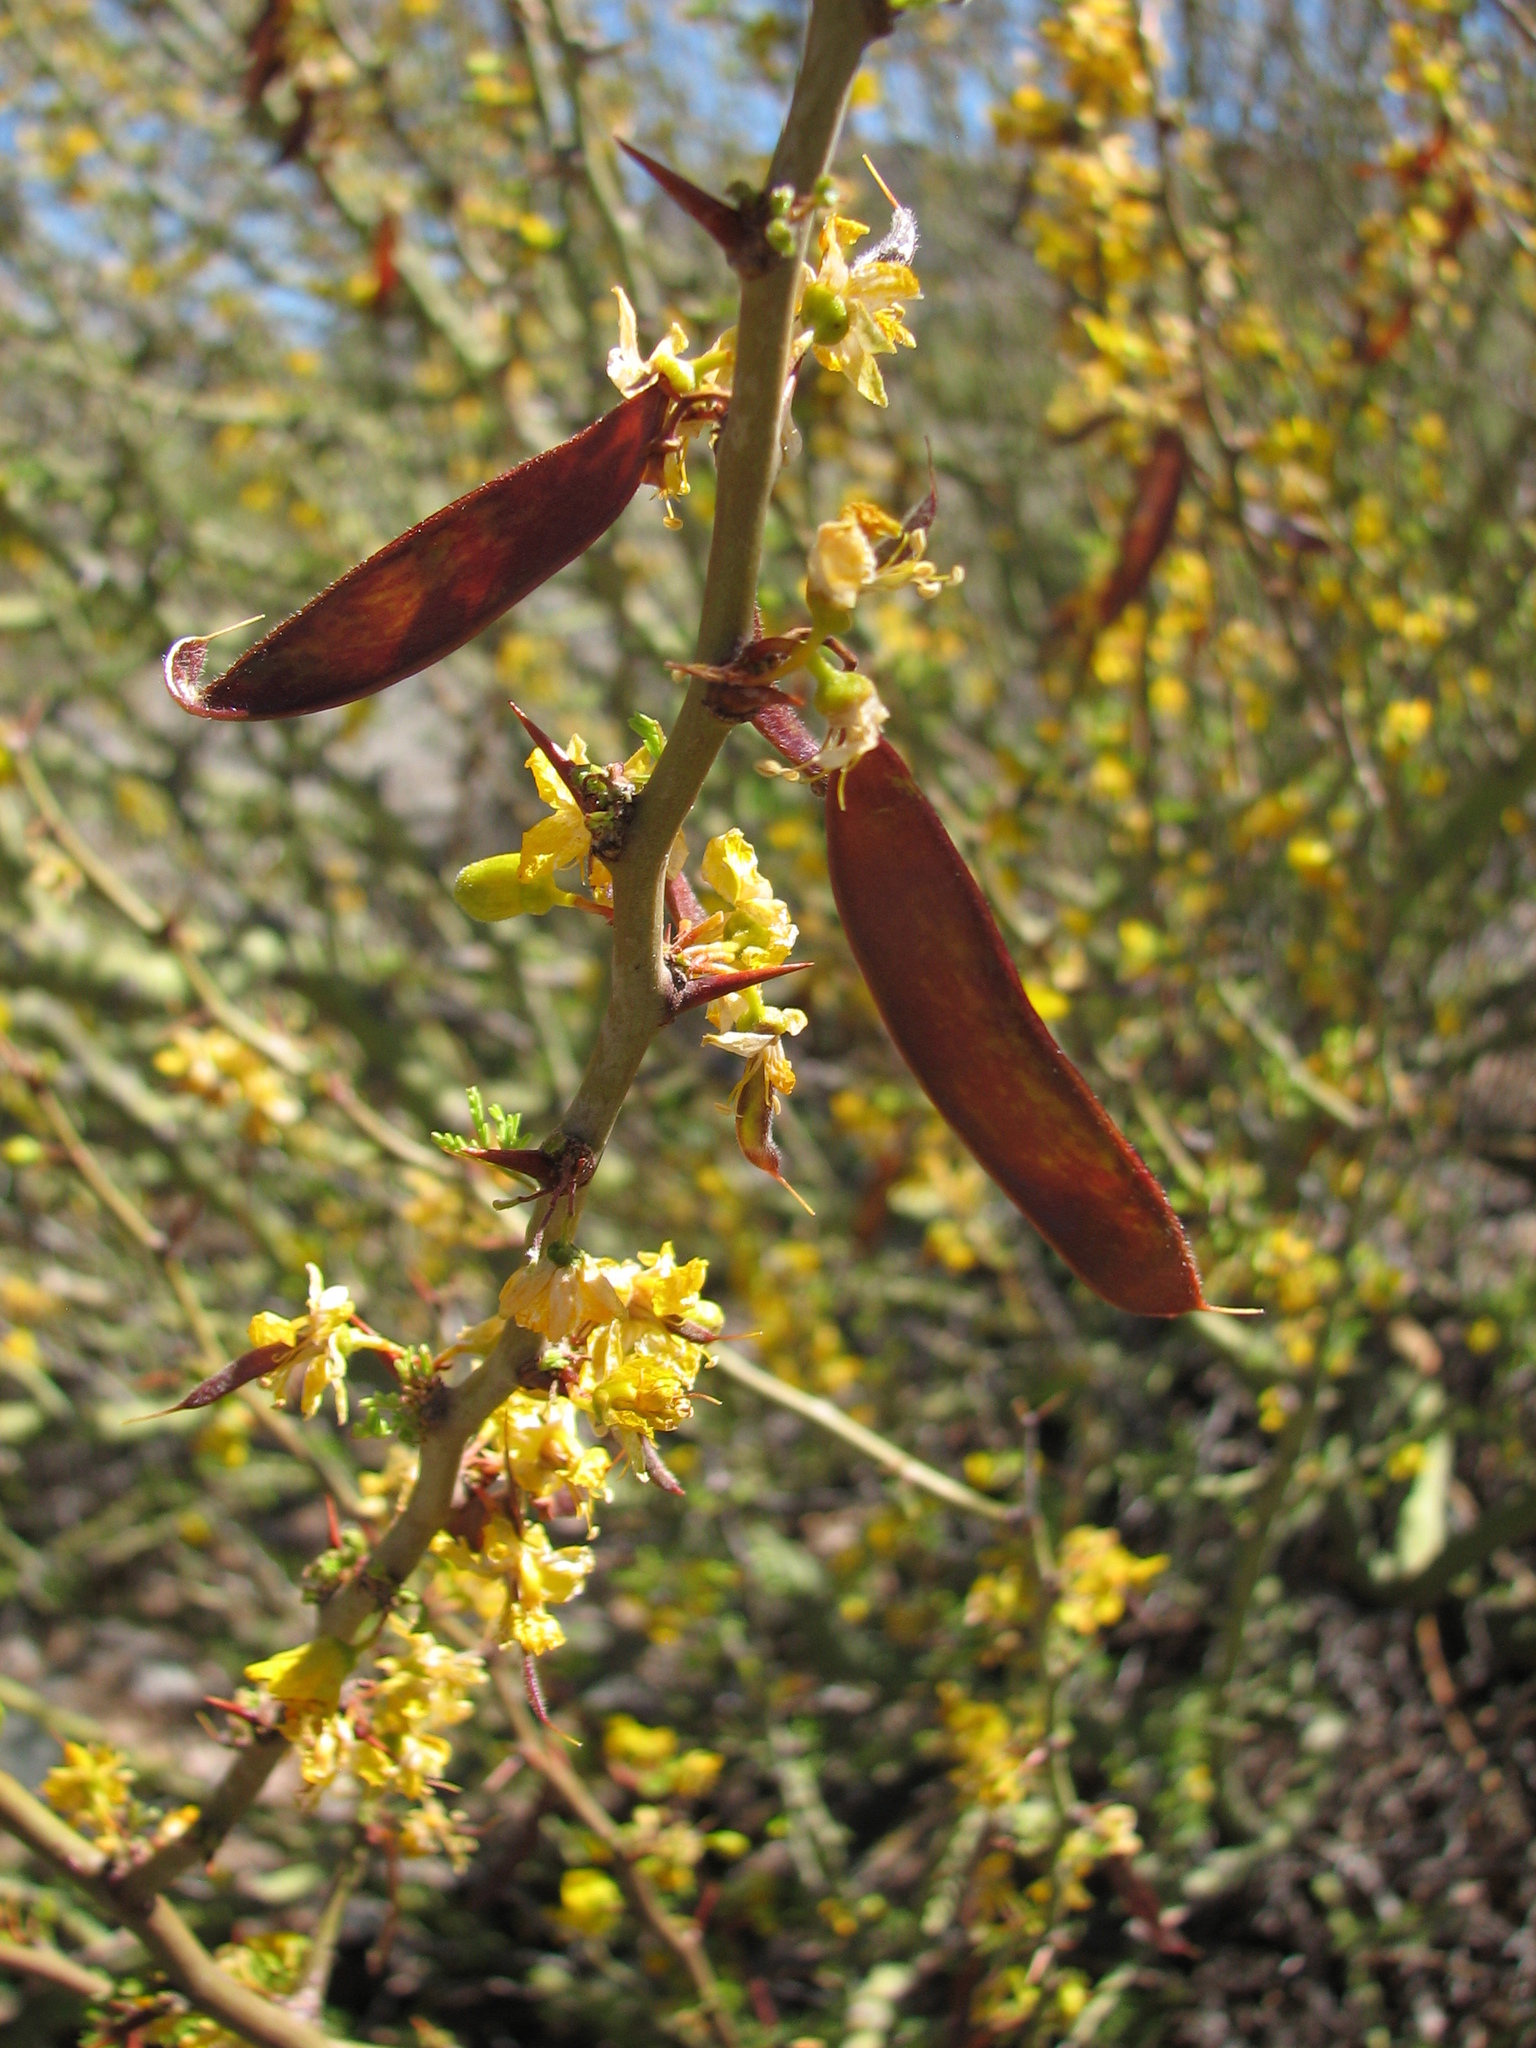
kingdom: Plantae
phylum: Tracheophyta
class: Magnoliopsida
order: Fabales
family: Fabaceae
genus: Parkinsonia
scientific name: Parkinsonia praecox
